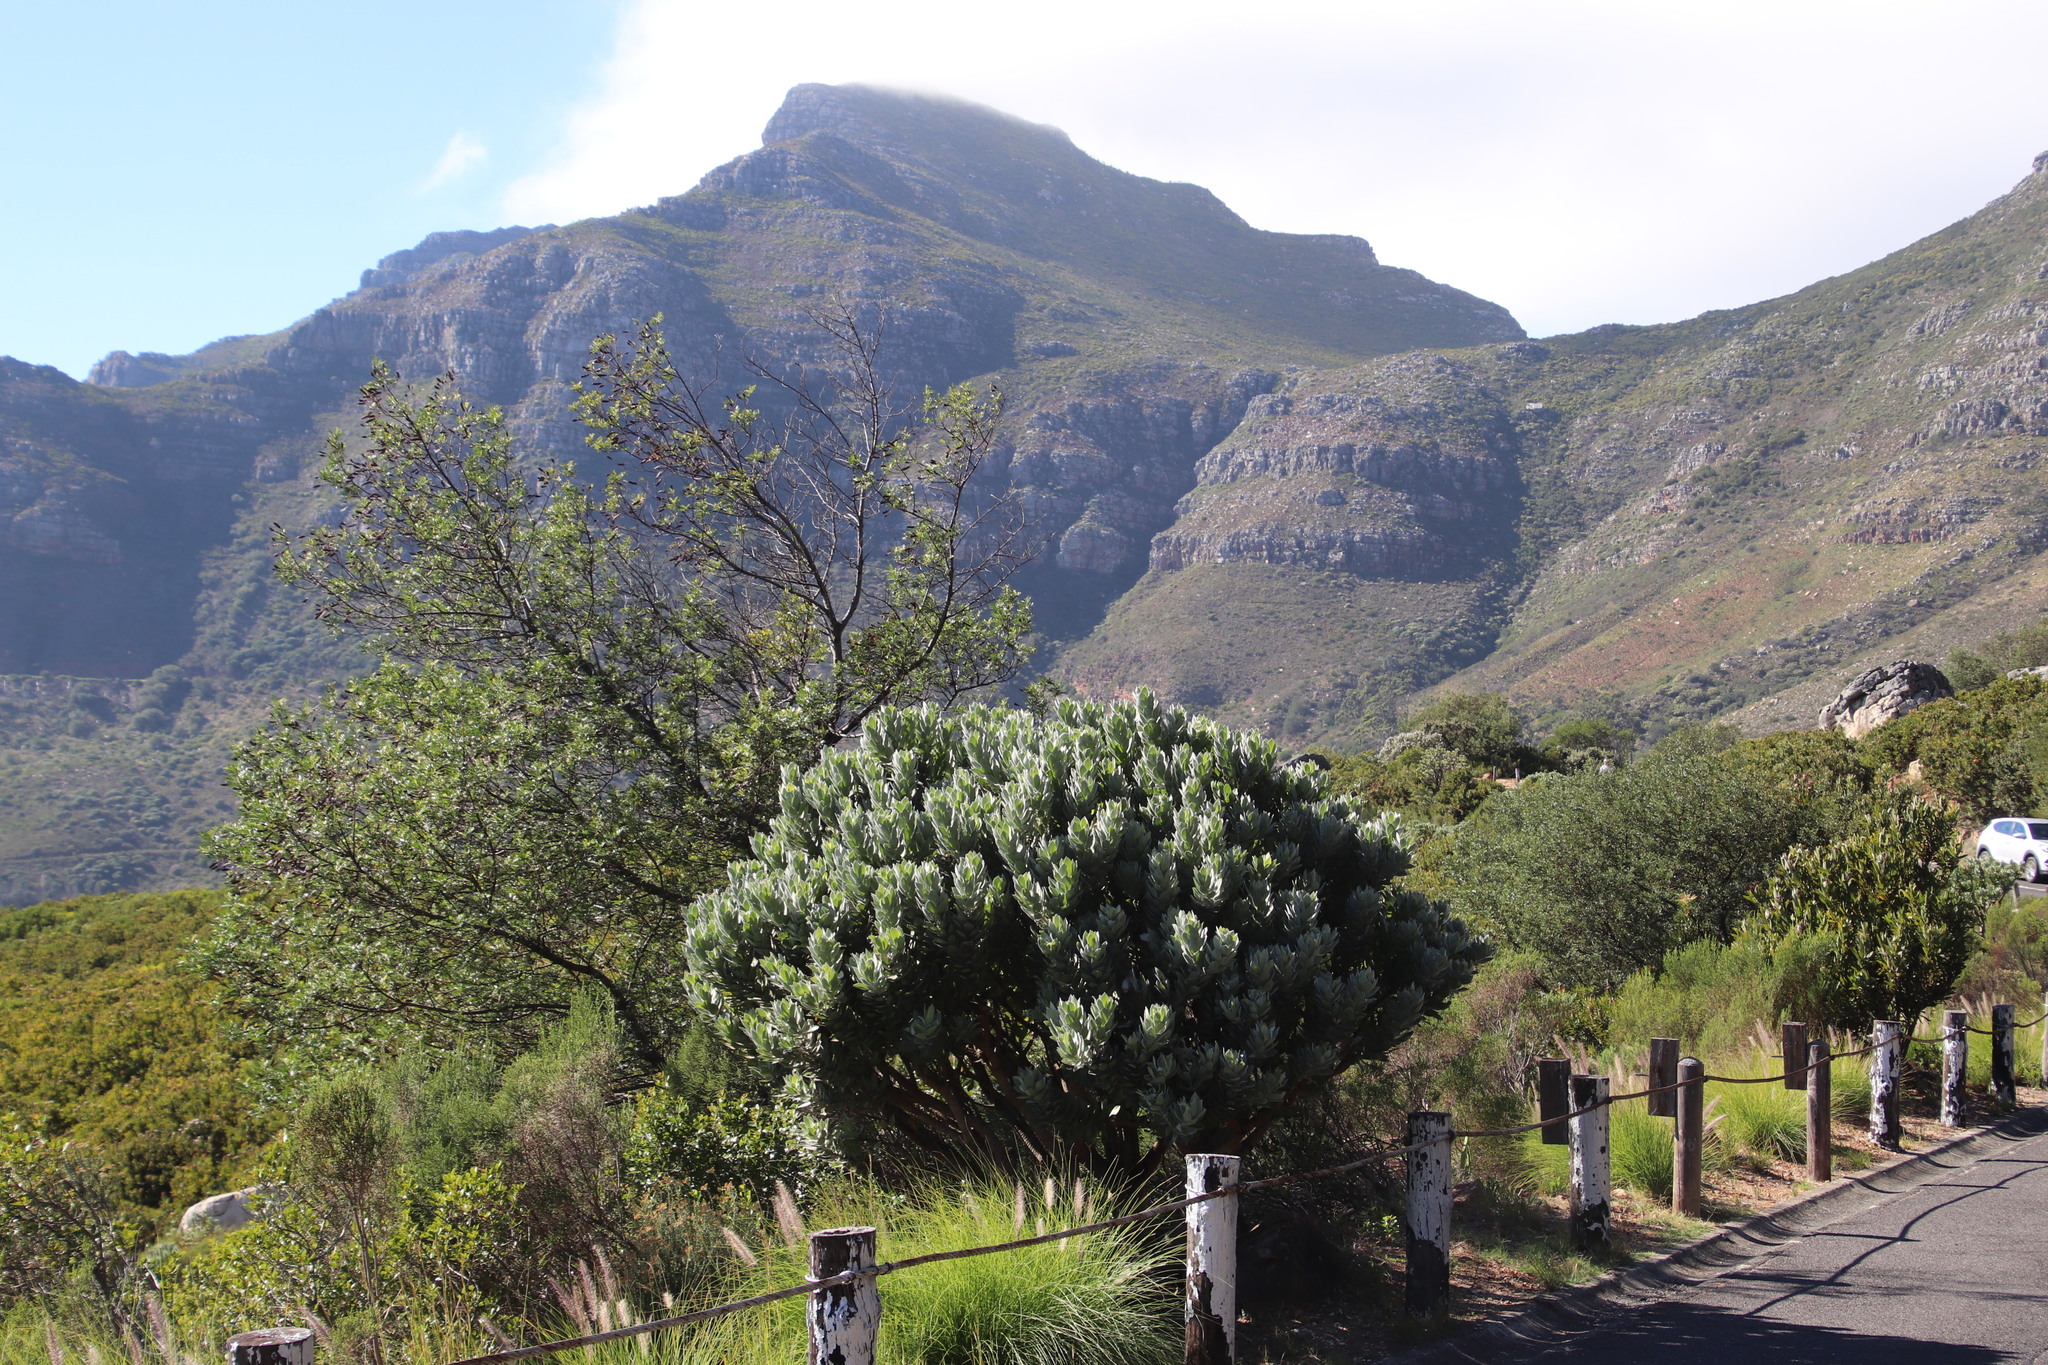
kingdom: Plantae
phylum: Tracheophyta
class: Magnoliopsida
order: Proteales
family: Proteaceae
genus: Leucospermum
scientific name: Leucospermum conocarpodendron
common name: Tree pincushion
